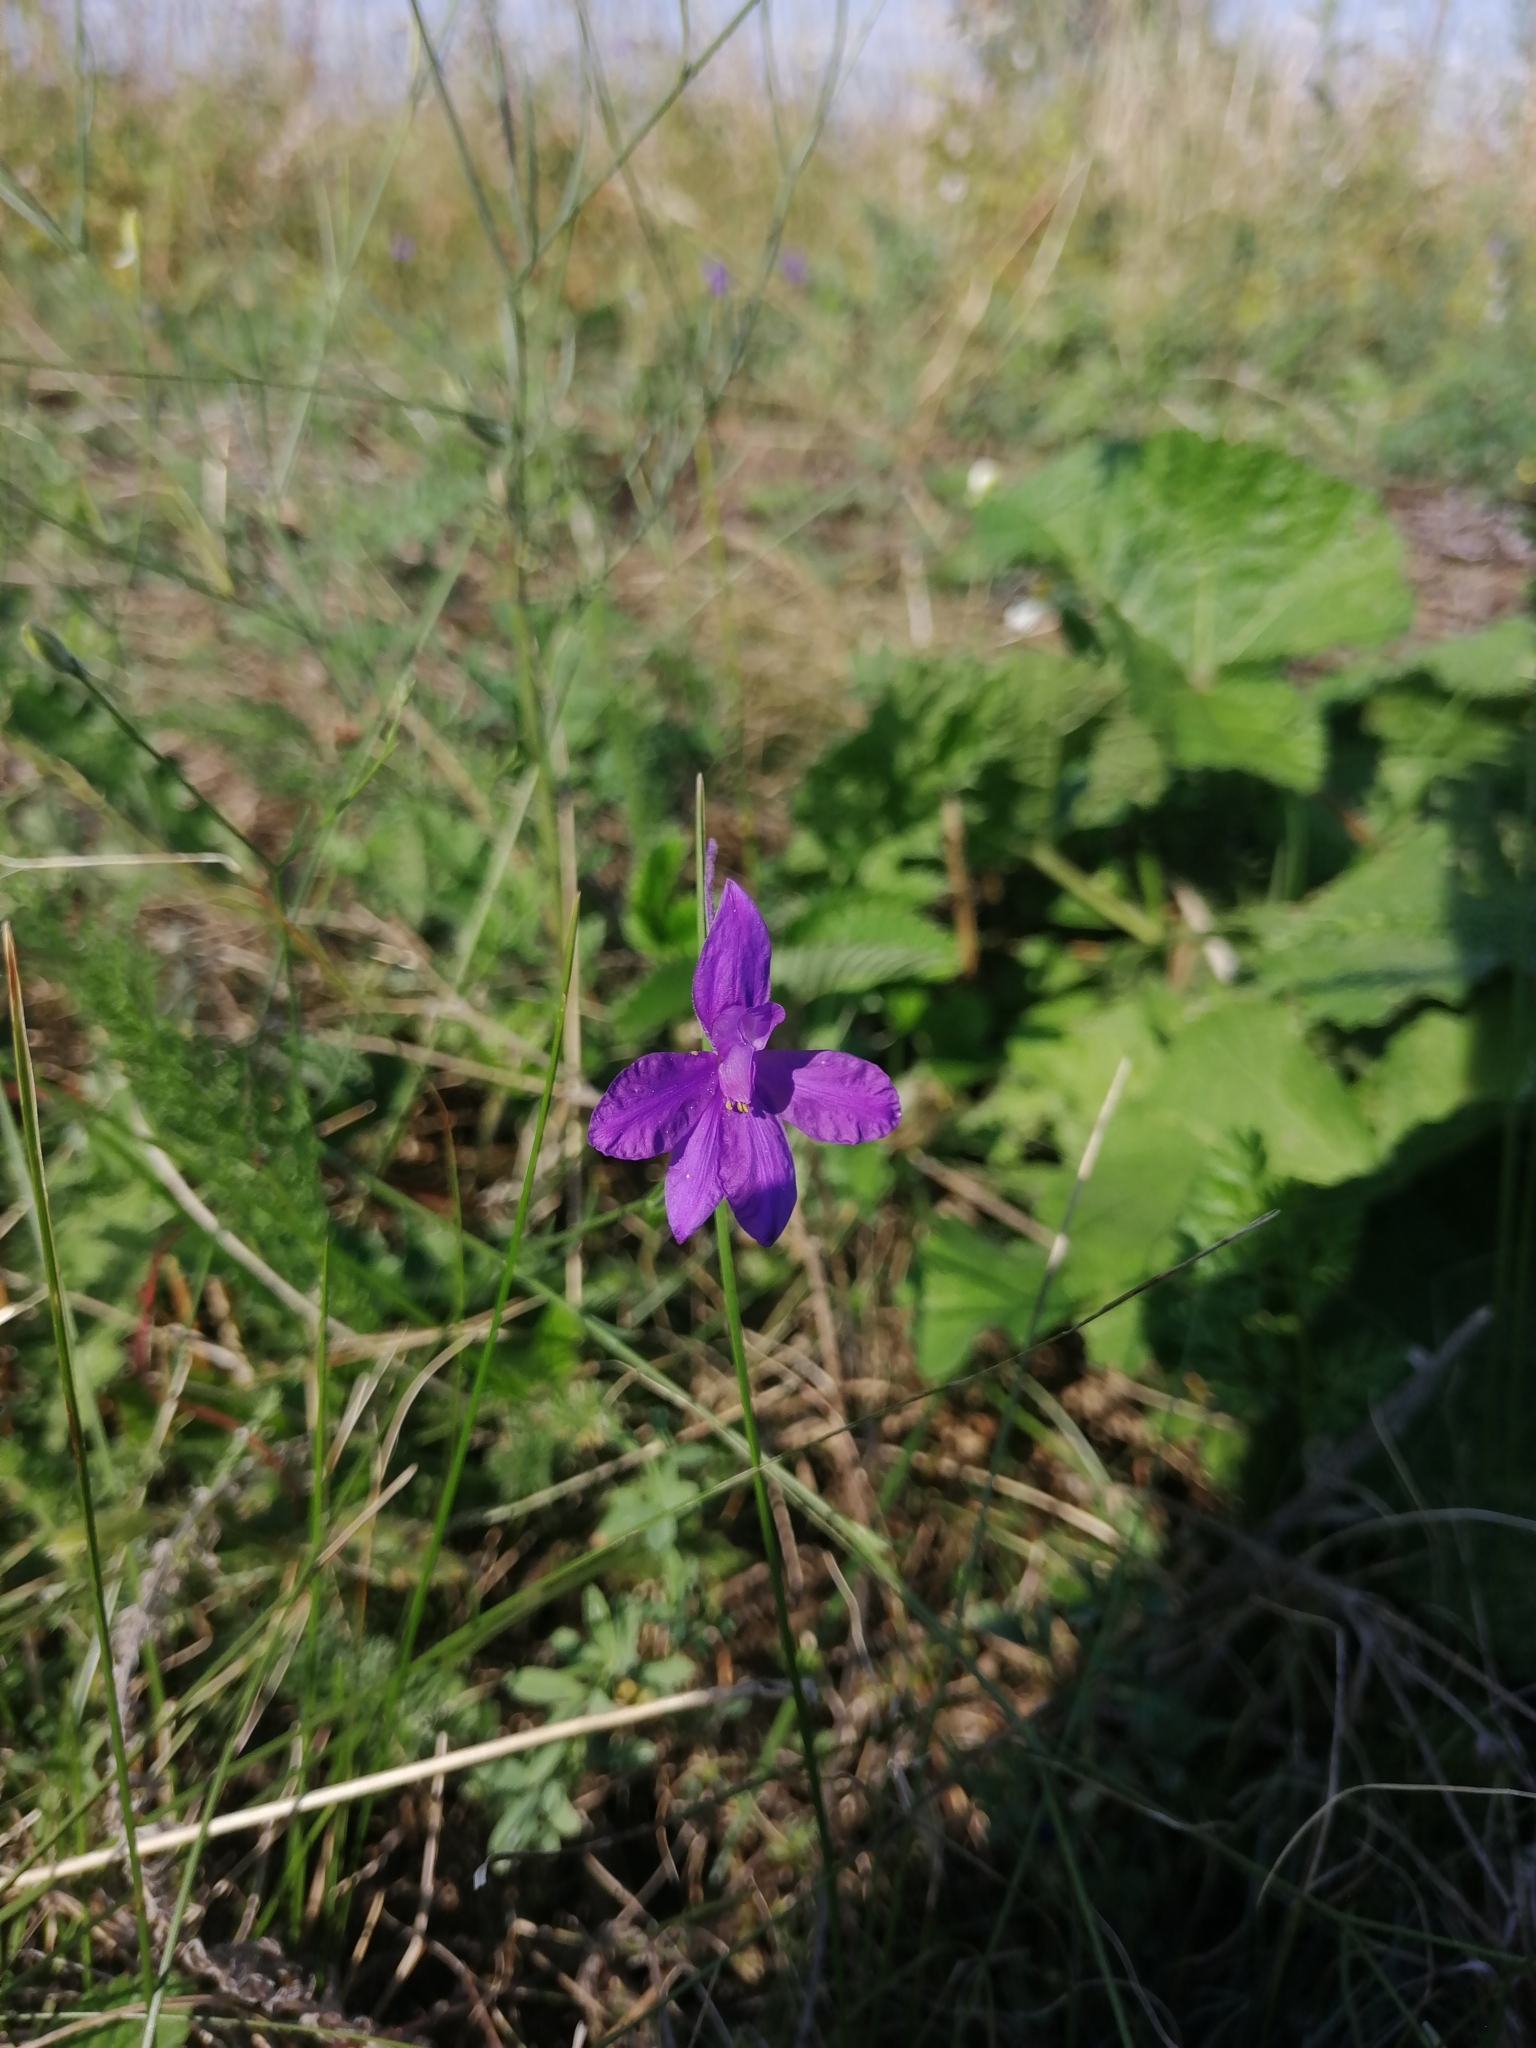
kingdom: Plantae
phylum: Tracheophyta
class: Magnoliopsida
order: Ranunculales
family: Ranunculaceae
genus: Delphinium
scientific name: Delphinium consolida
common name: Branching larkspur
